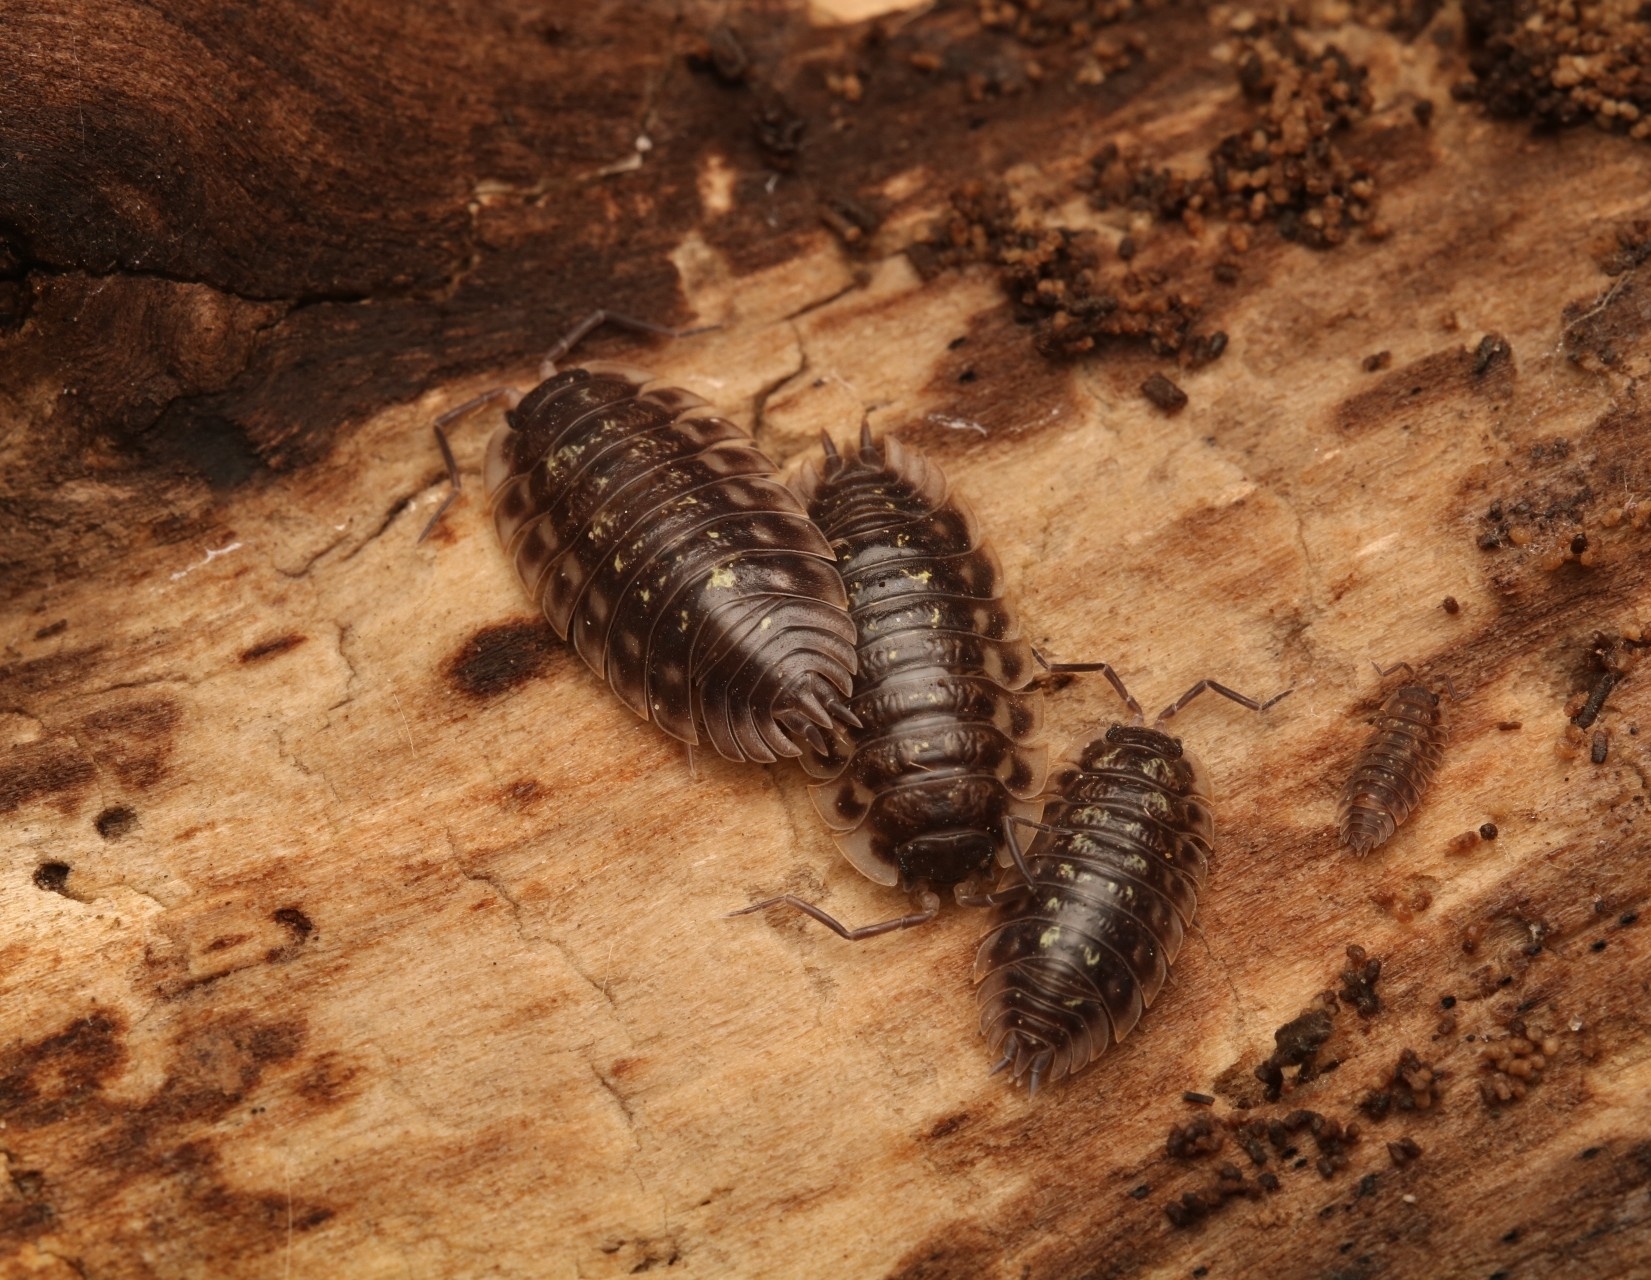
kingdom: Animalia
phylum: Arthropoda
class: Malacostraca
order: Isopoda
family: Oniscidae
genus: Oniscus
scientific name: Oniscus asellus
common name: Common shiny woodlouse
